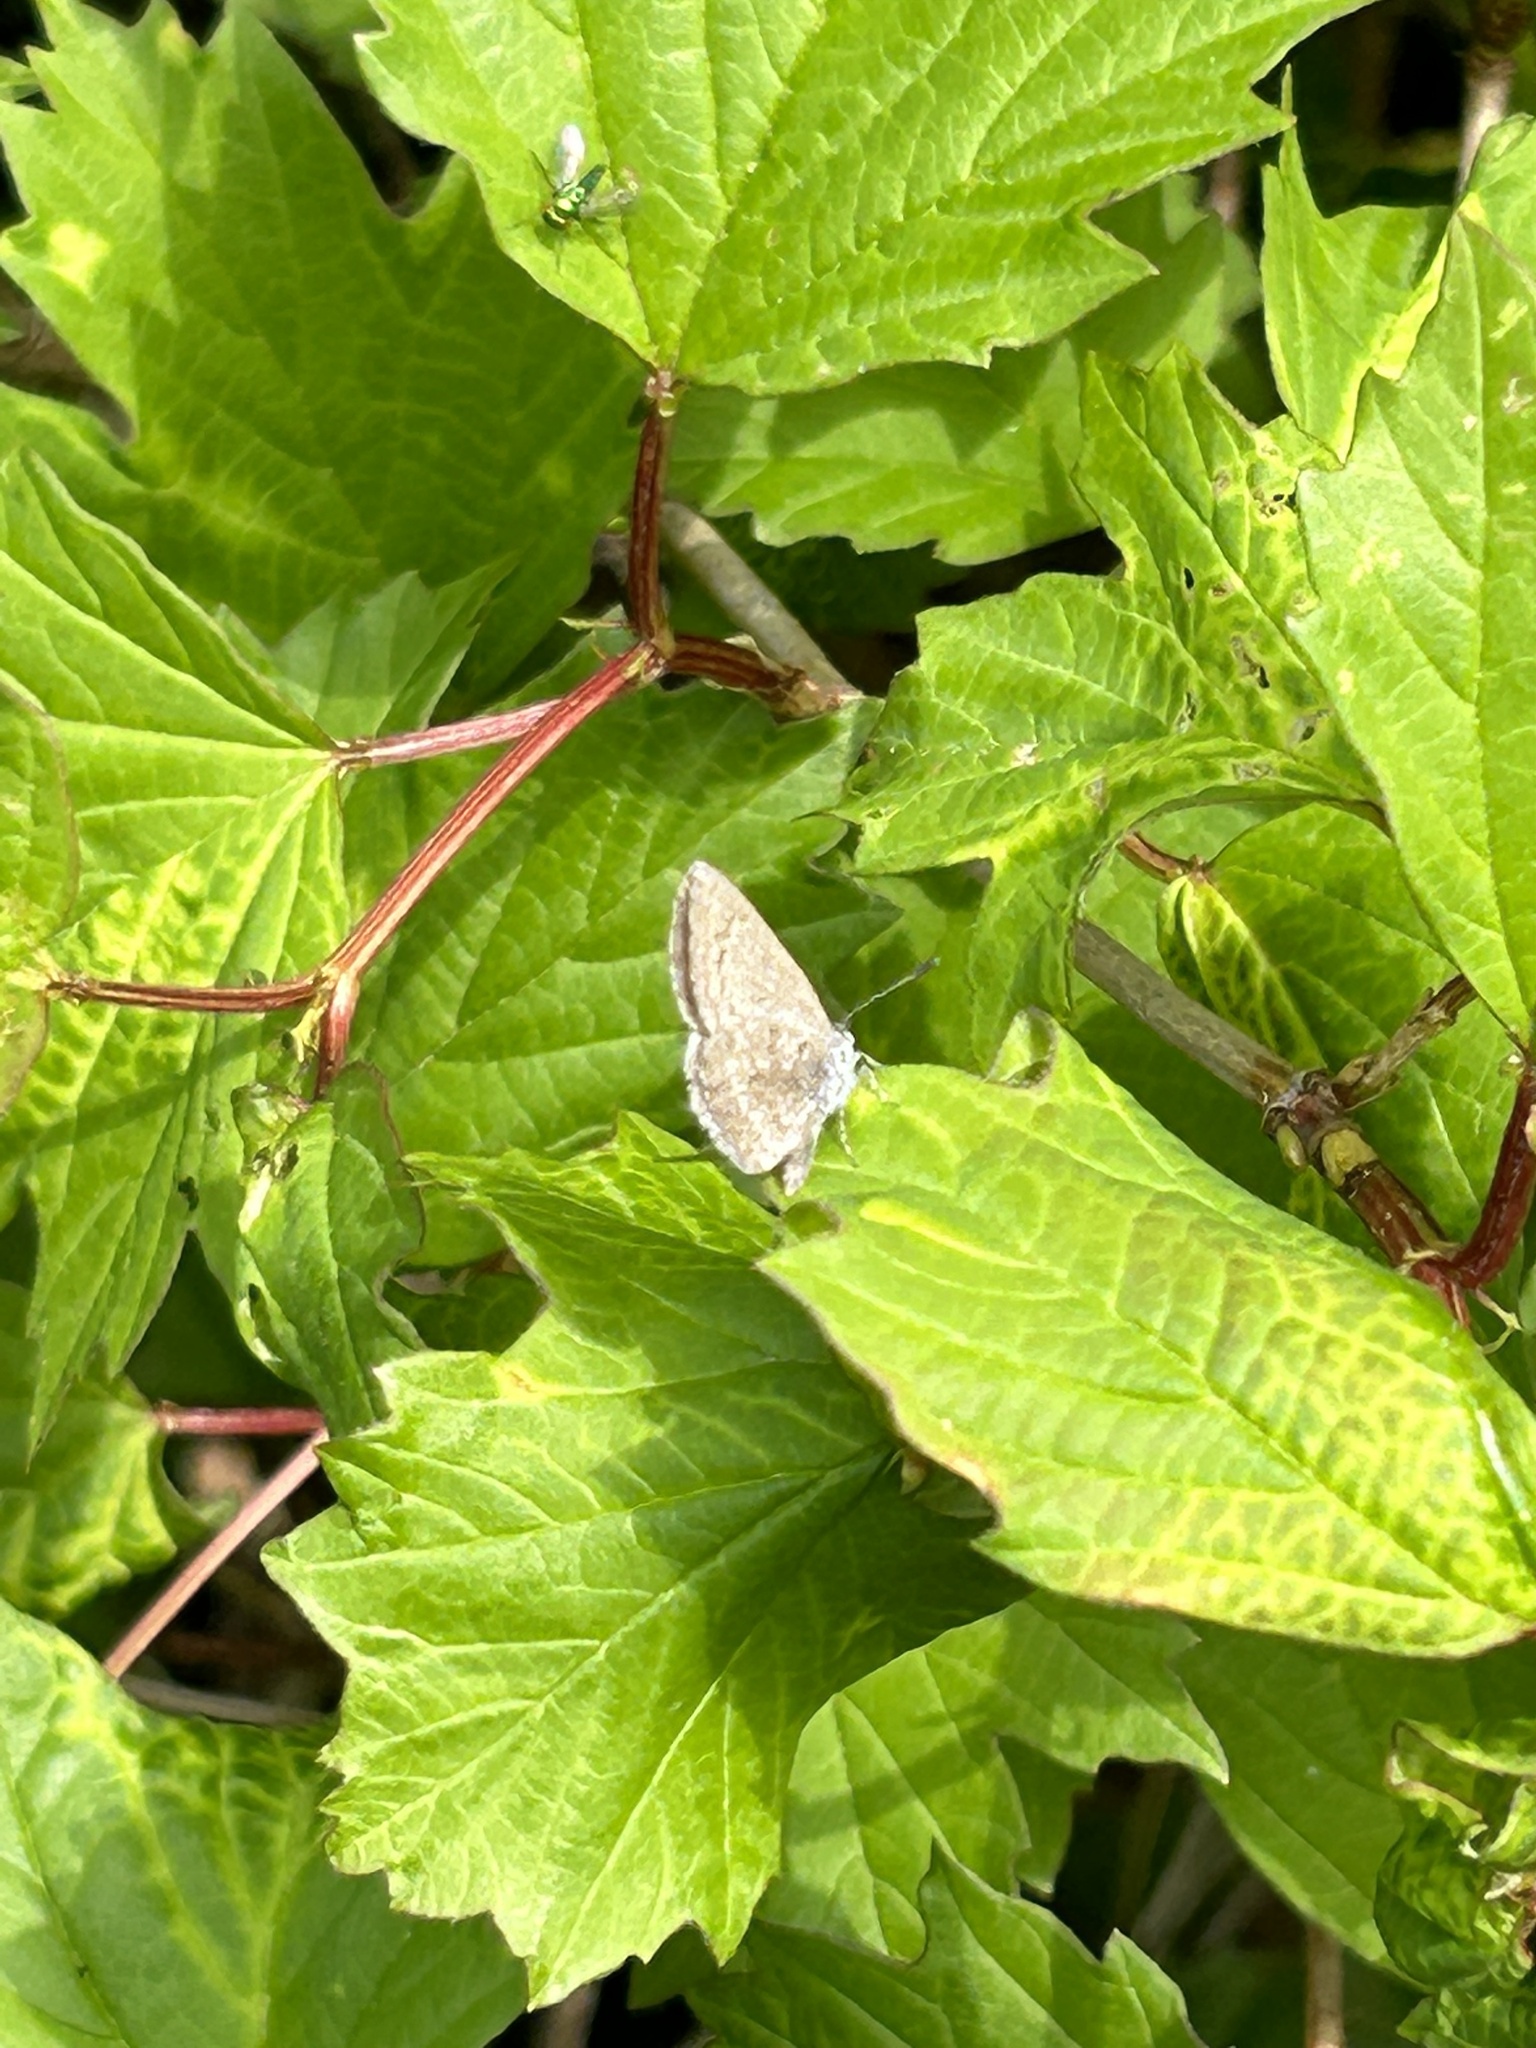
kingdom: Animalia
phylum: Arthropoda
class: Insecta
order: Lepidoptera
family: Lycaenidae
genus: Celastrina
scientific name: Celastrina lucia
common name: Lucia azure
